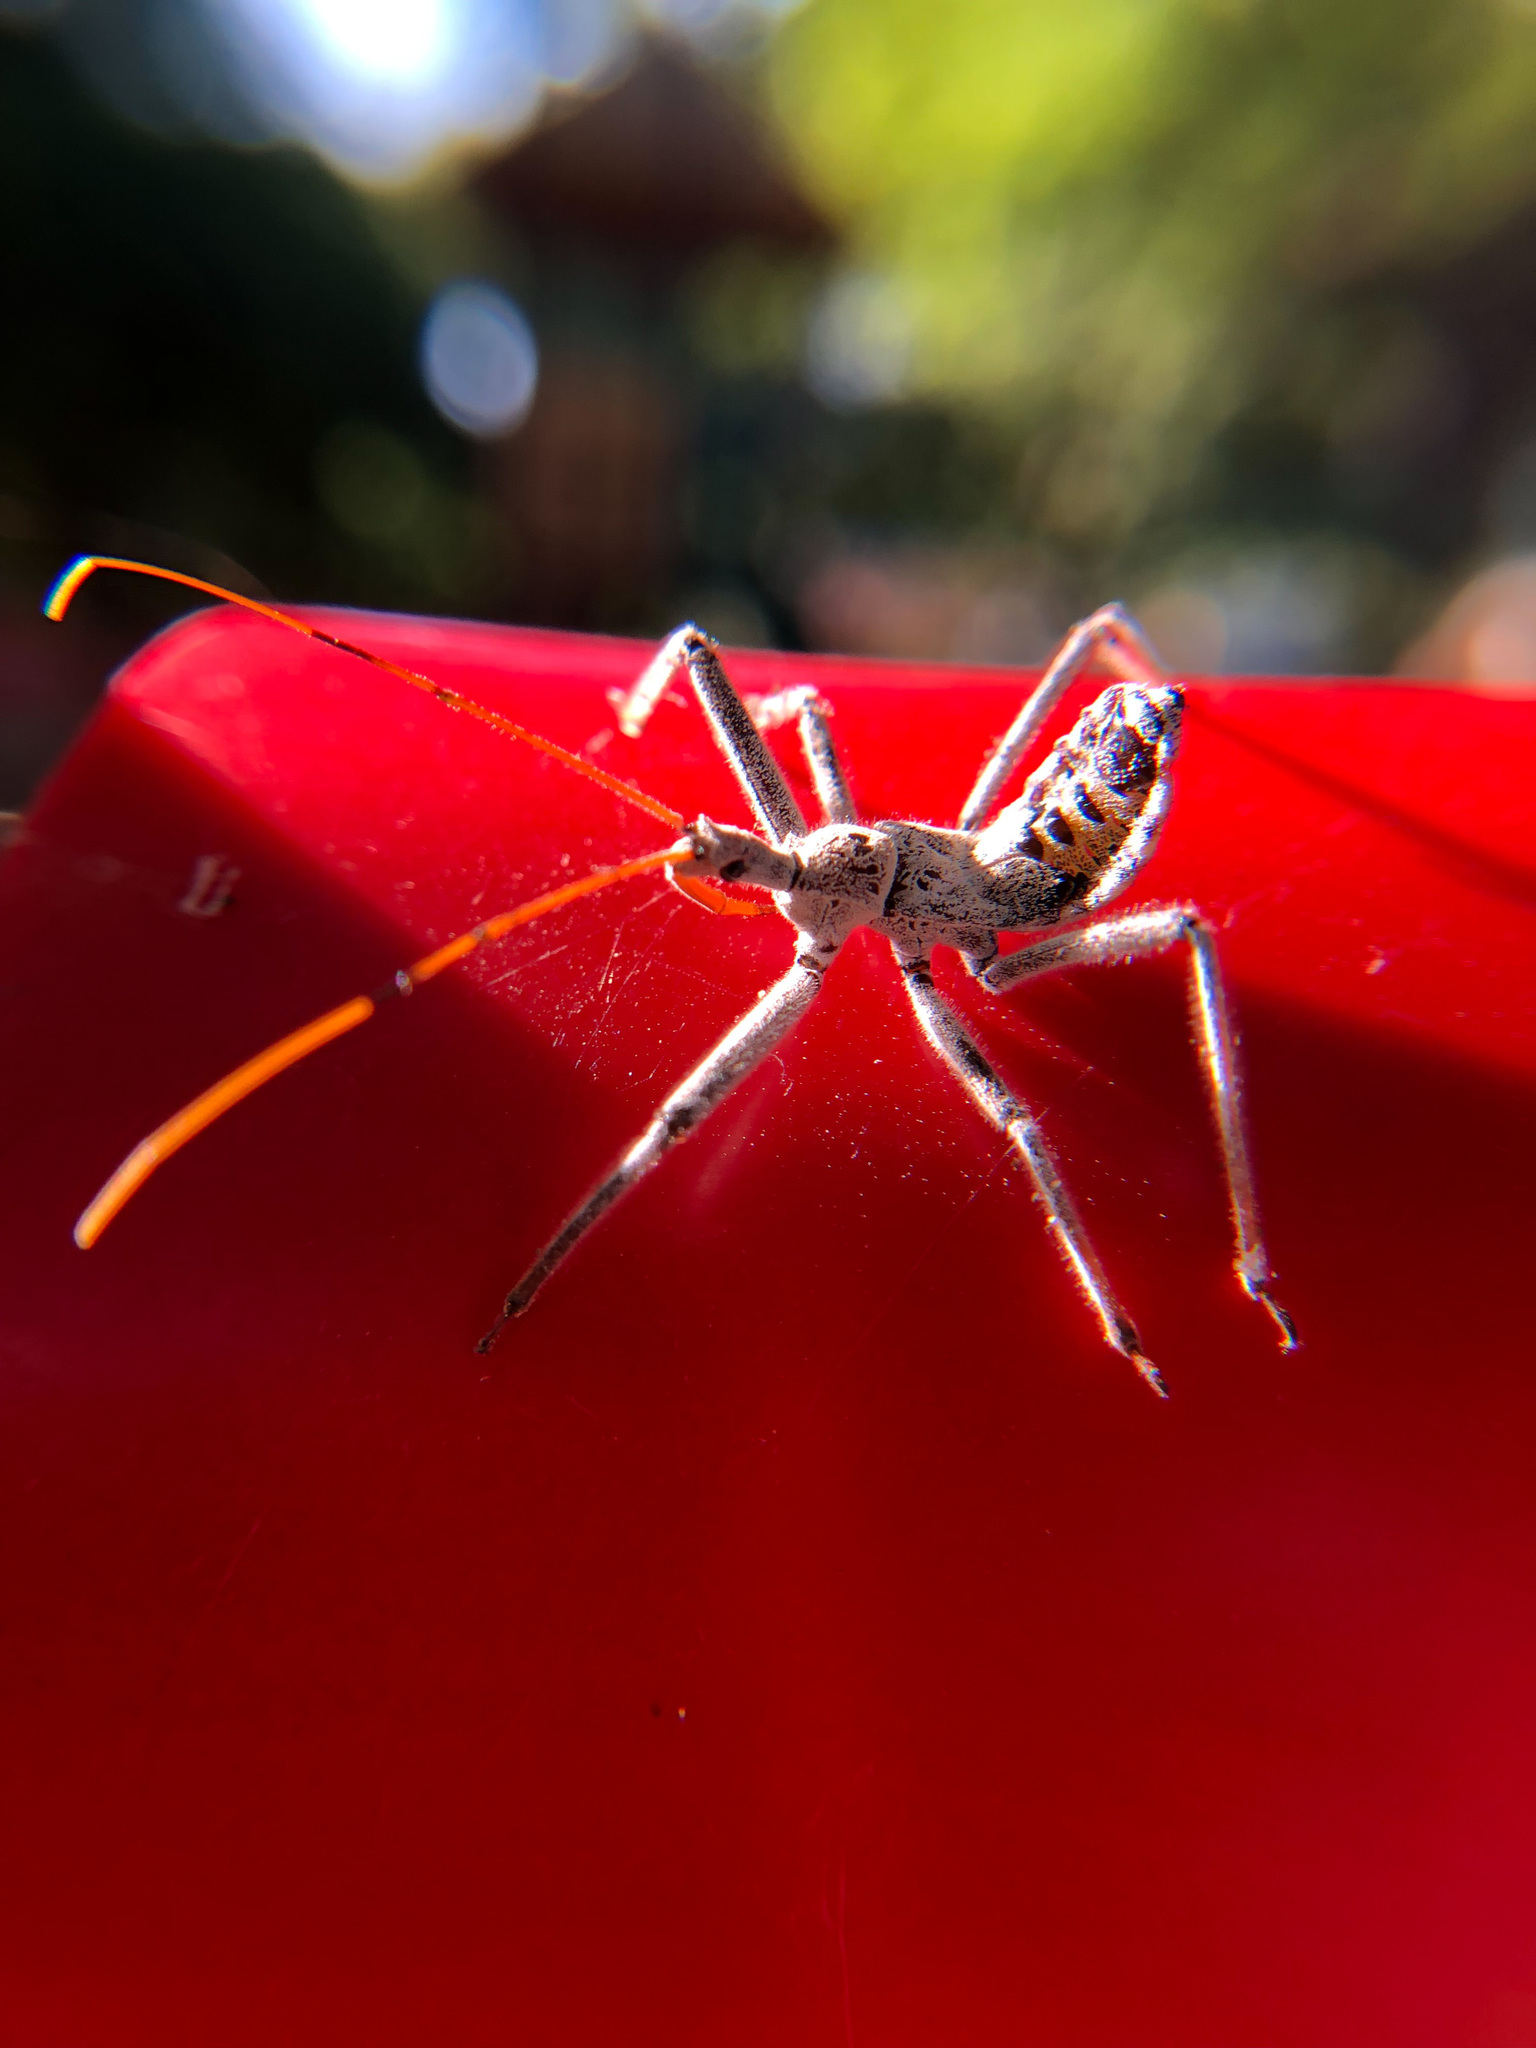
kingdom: Animalia
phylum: Arthropoda
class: Insecta
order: Hemiptera
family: Reduviidae
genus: Arilus
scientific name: Arilus cristatus
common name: North american wheel bug
